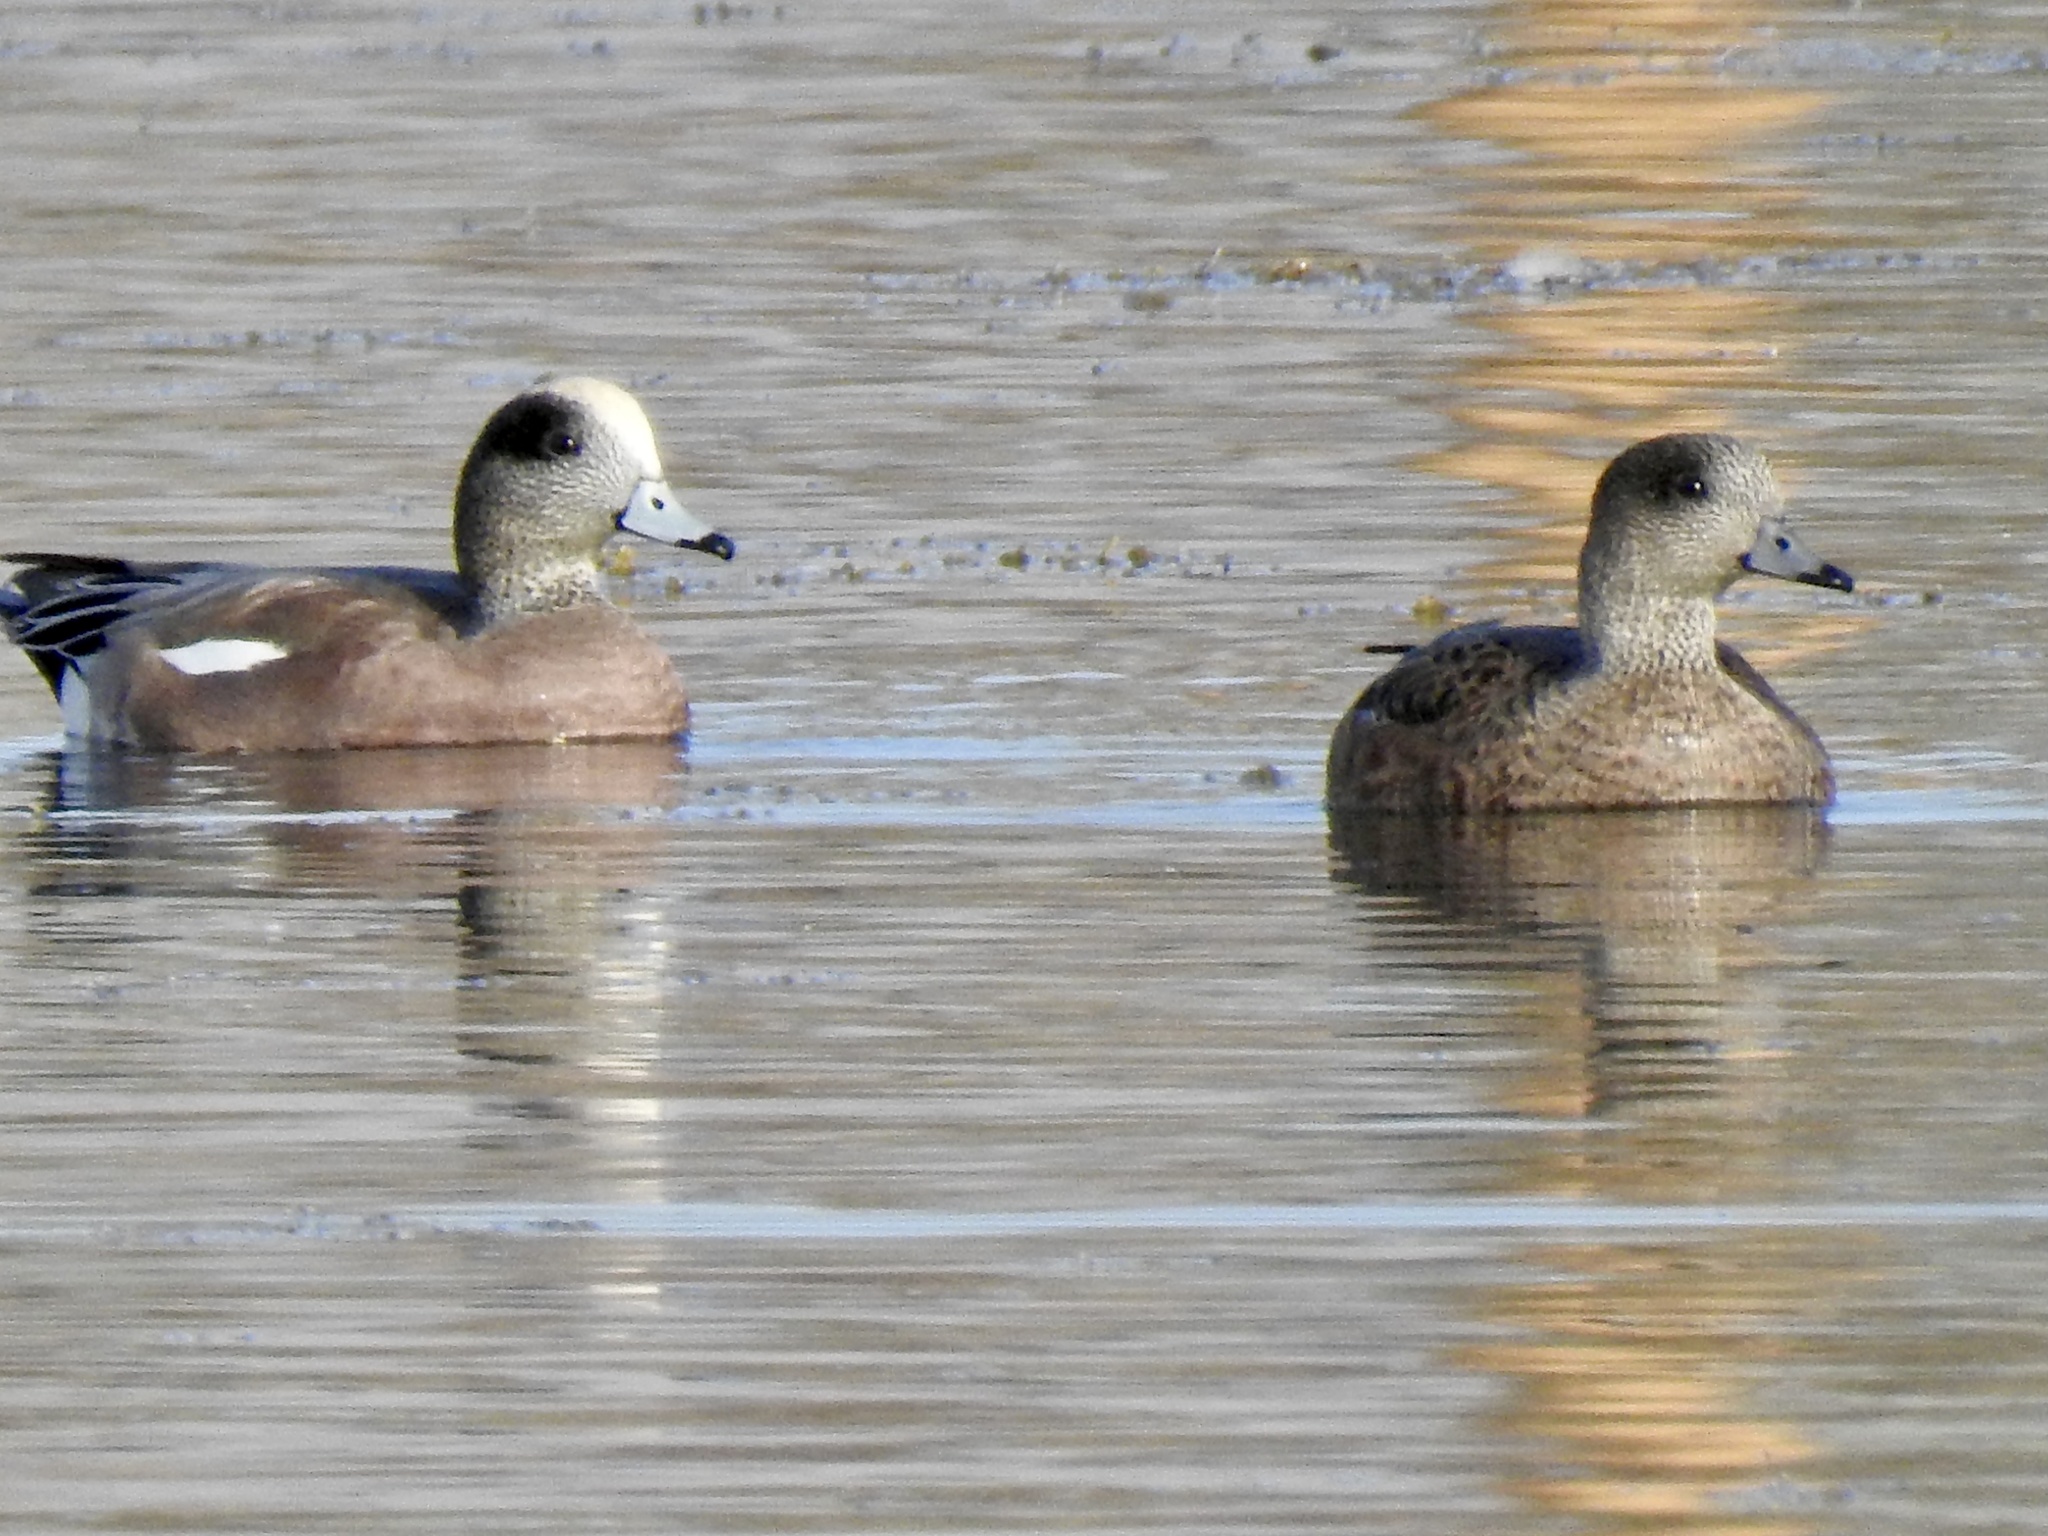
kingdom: Animalia
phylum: Chordata
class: Aves
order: Anseriformes
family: Anatidae
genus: Mareca
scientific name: Mareca americana
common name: American wigeon
